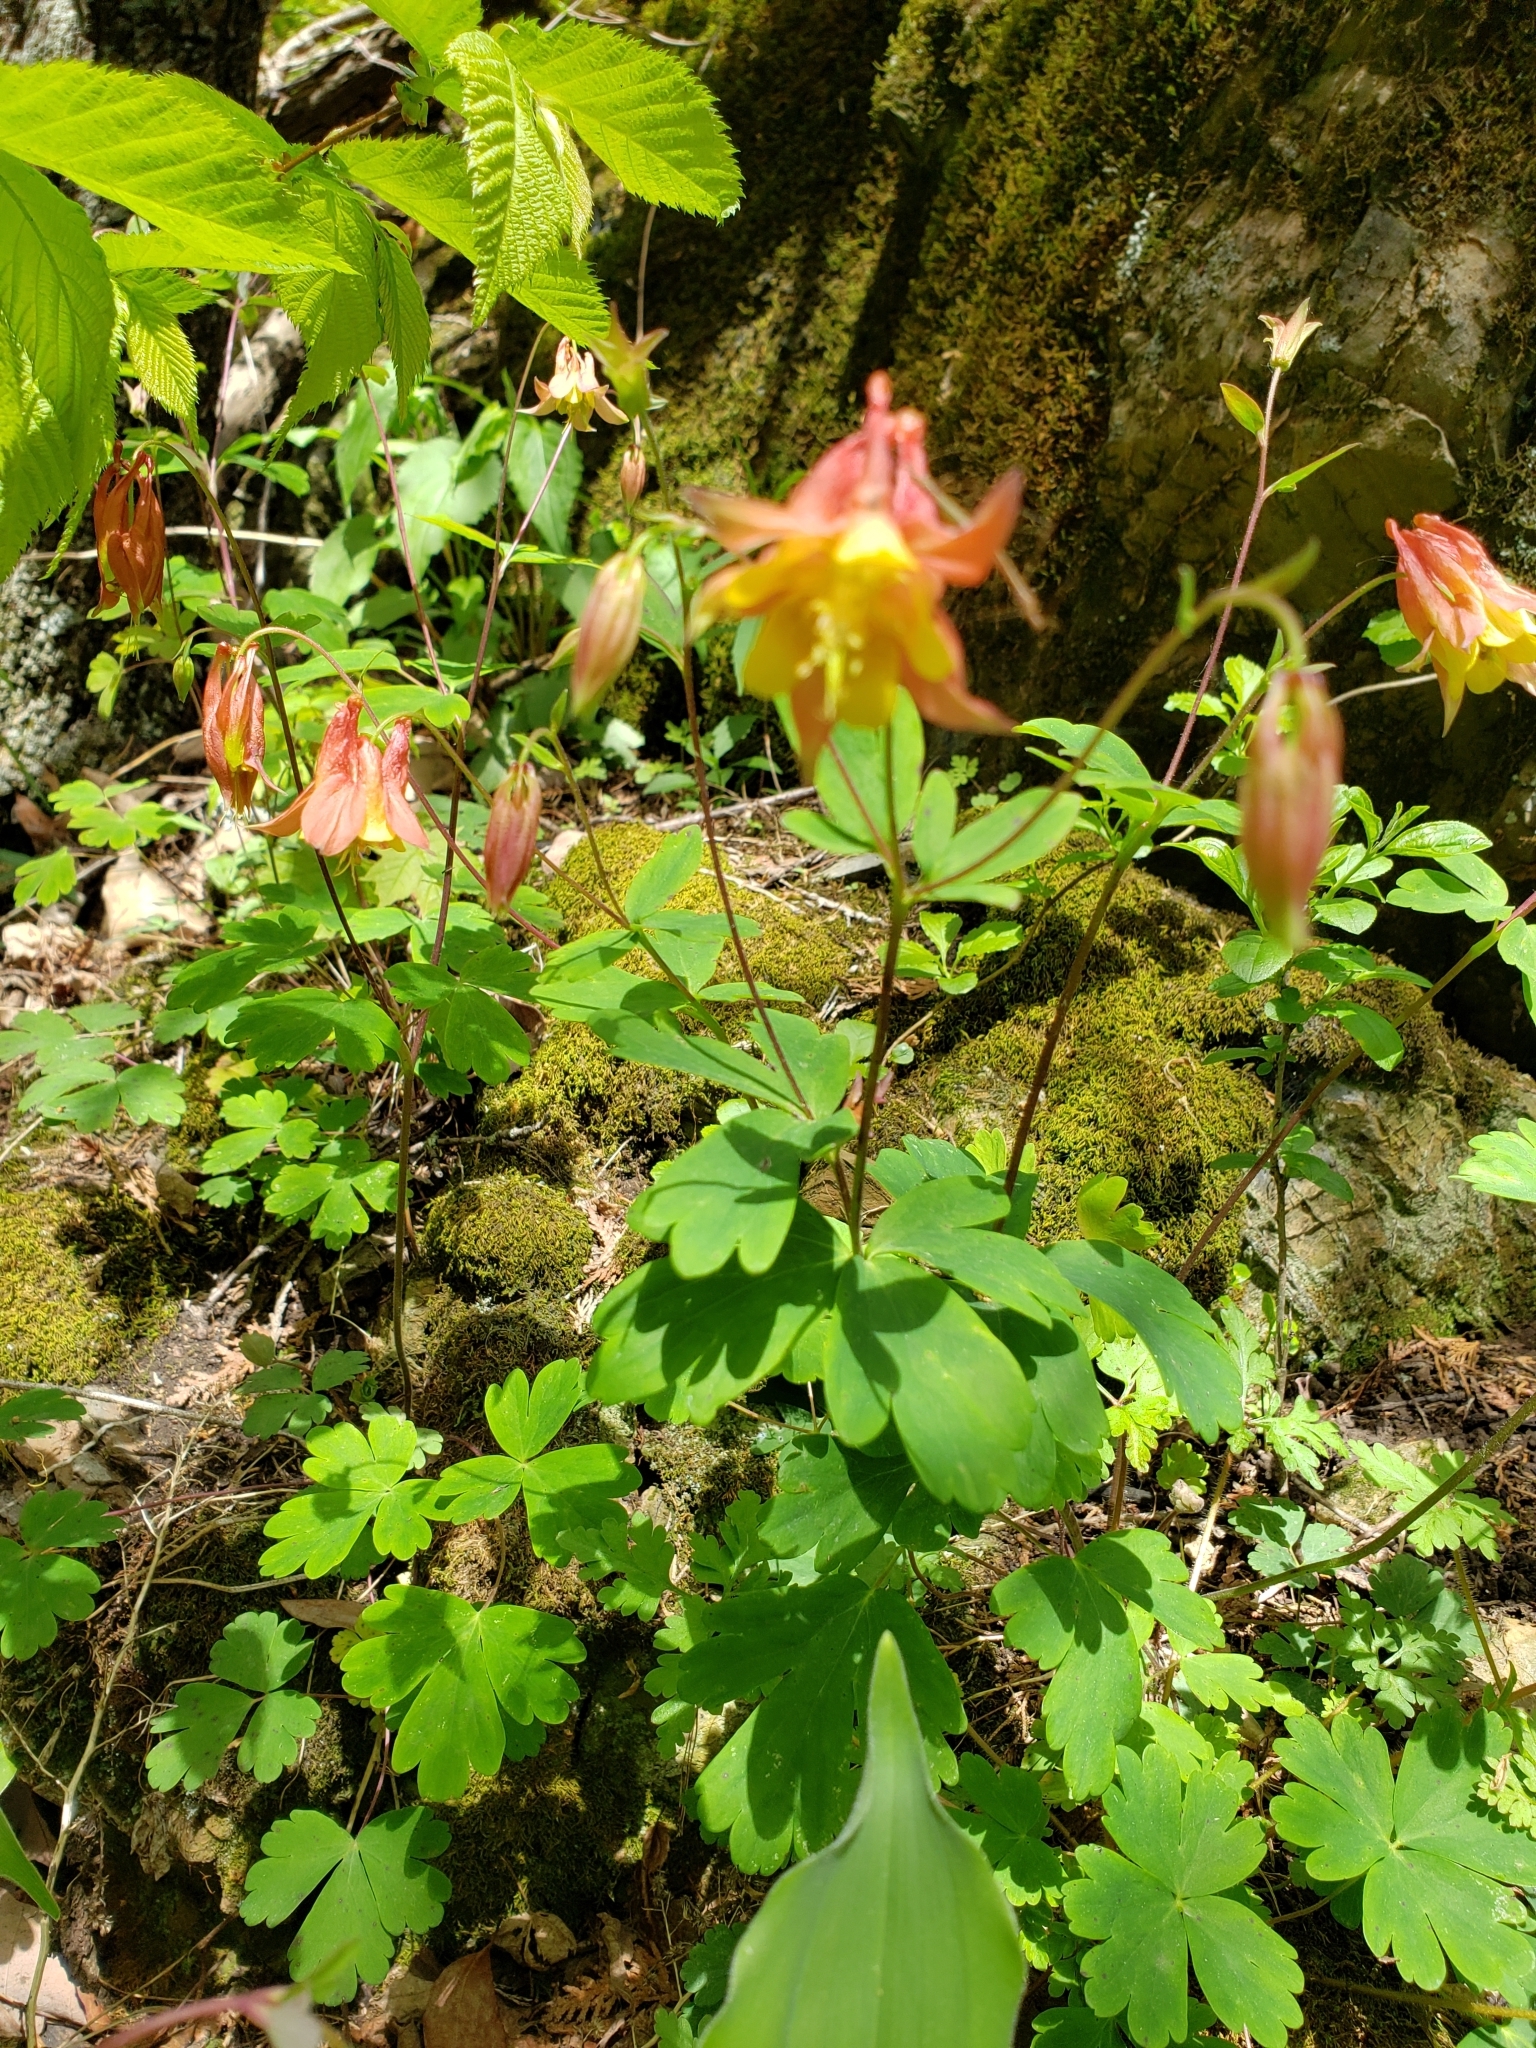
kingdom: Plantae
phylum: Tracheophyta
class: Magnoliopsida
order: Ranunculales
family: Ranunculaceae
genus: Aquilegia
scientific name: Aquilegia canadensis
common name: American columbine
